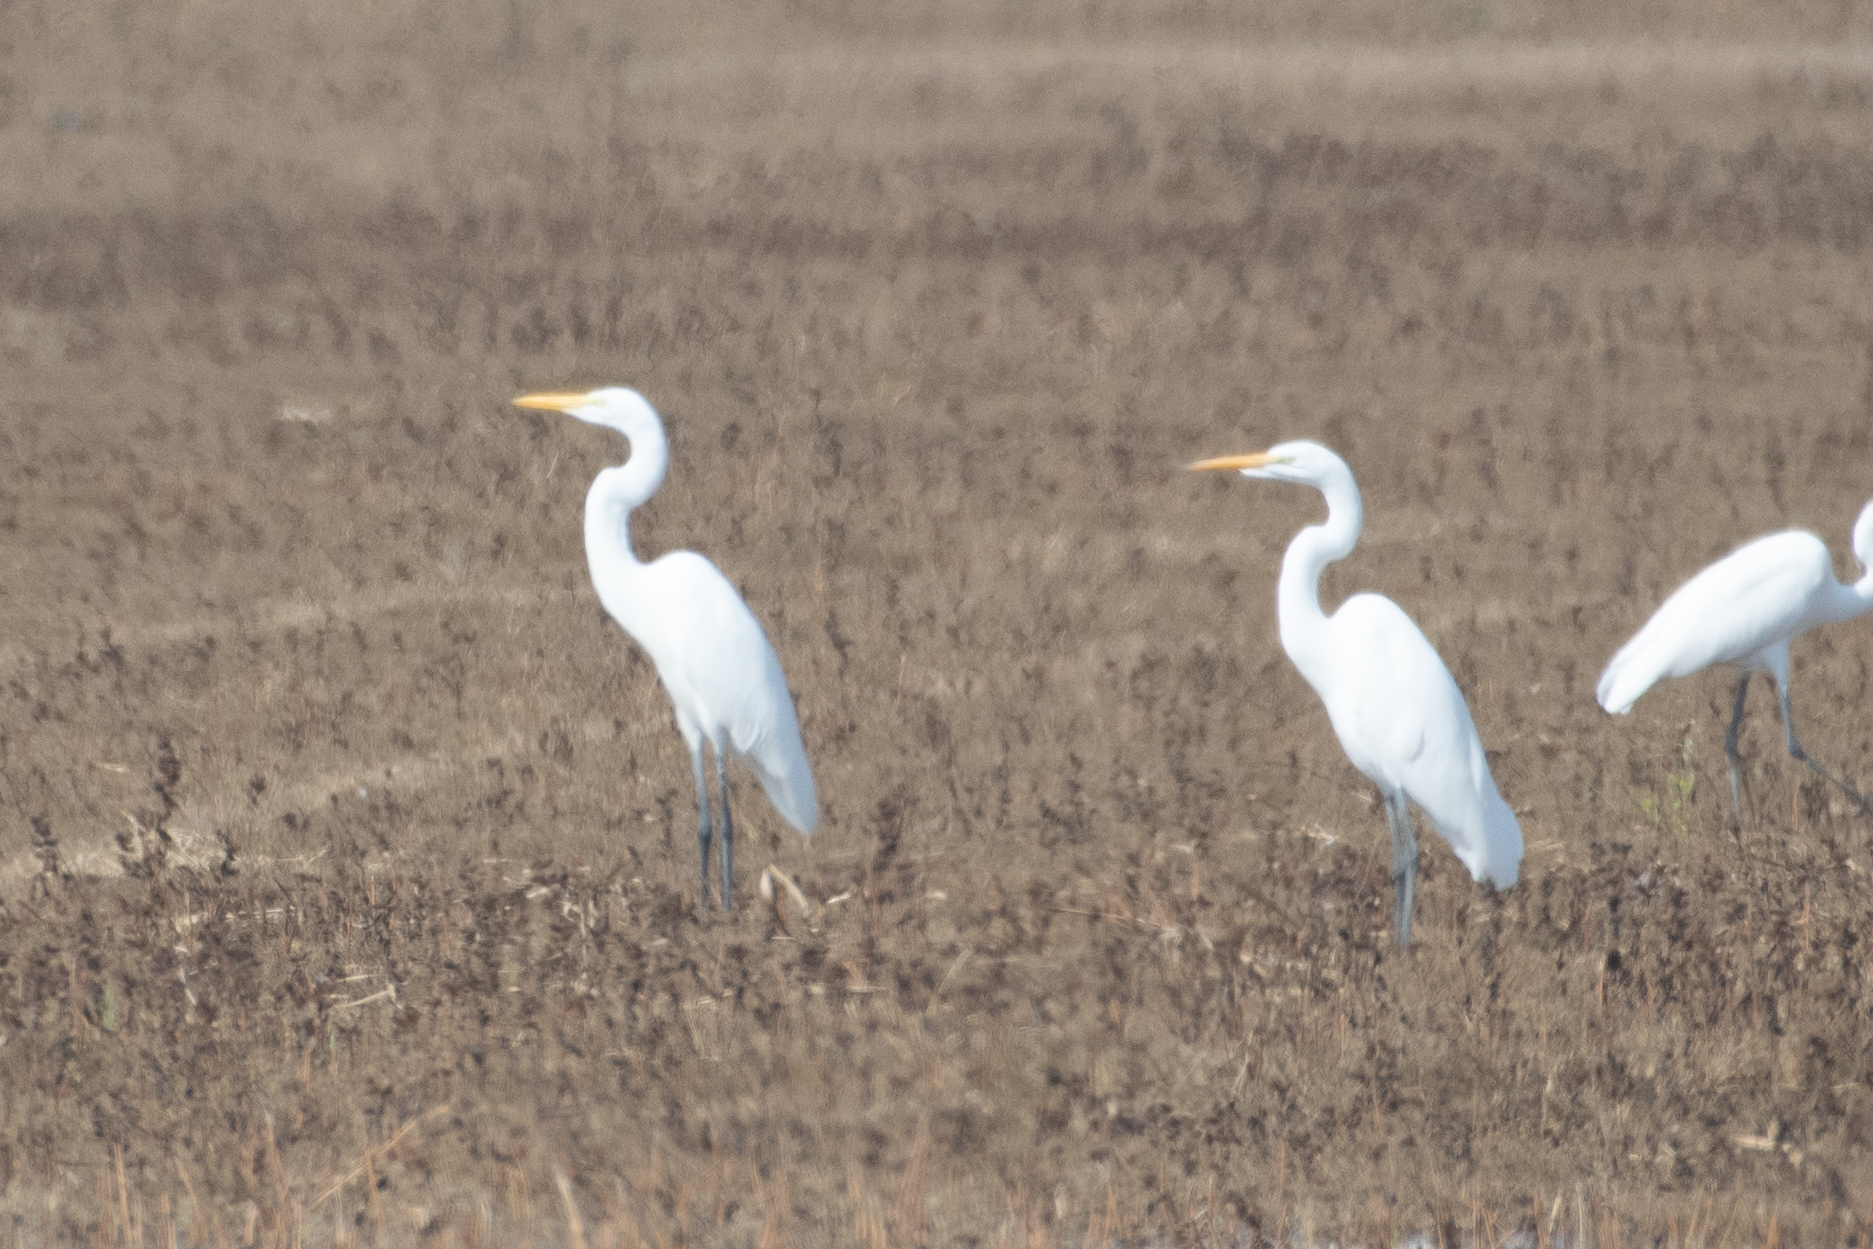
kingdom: Animalia
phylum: Chordata
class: Aves
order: Pelecaniformes
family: Ardeidae
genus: Ardea
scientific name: Ardea alba
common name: Great egret
